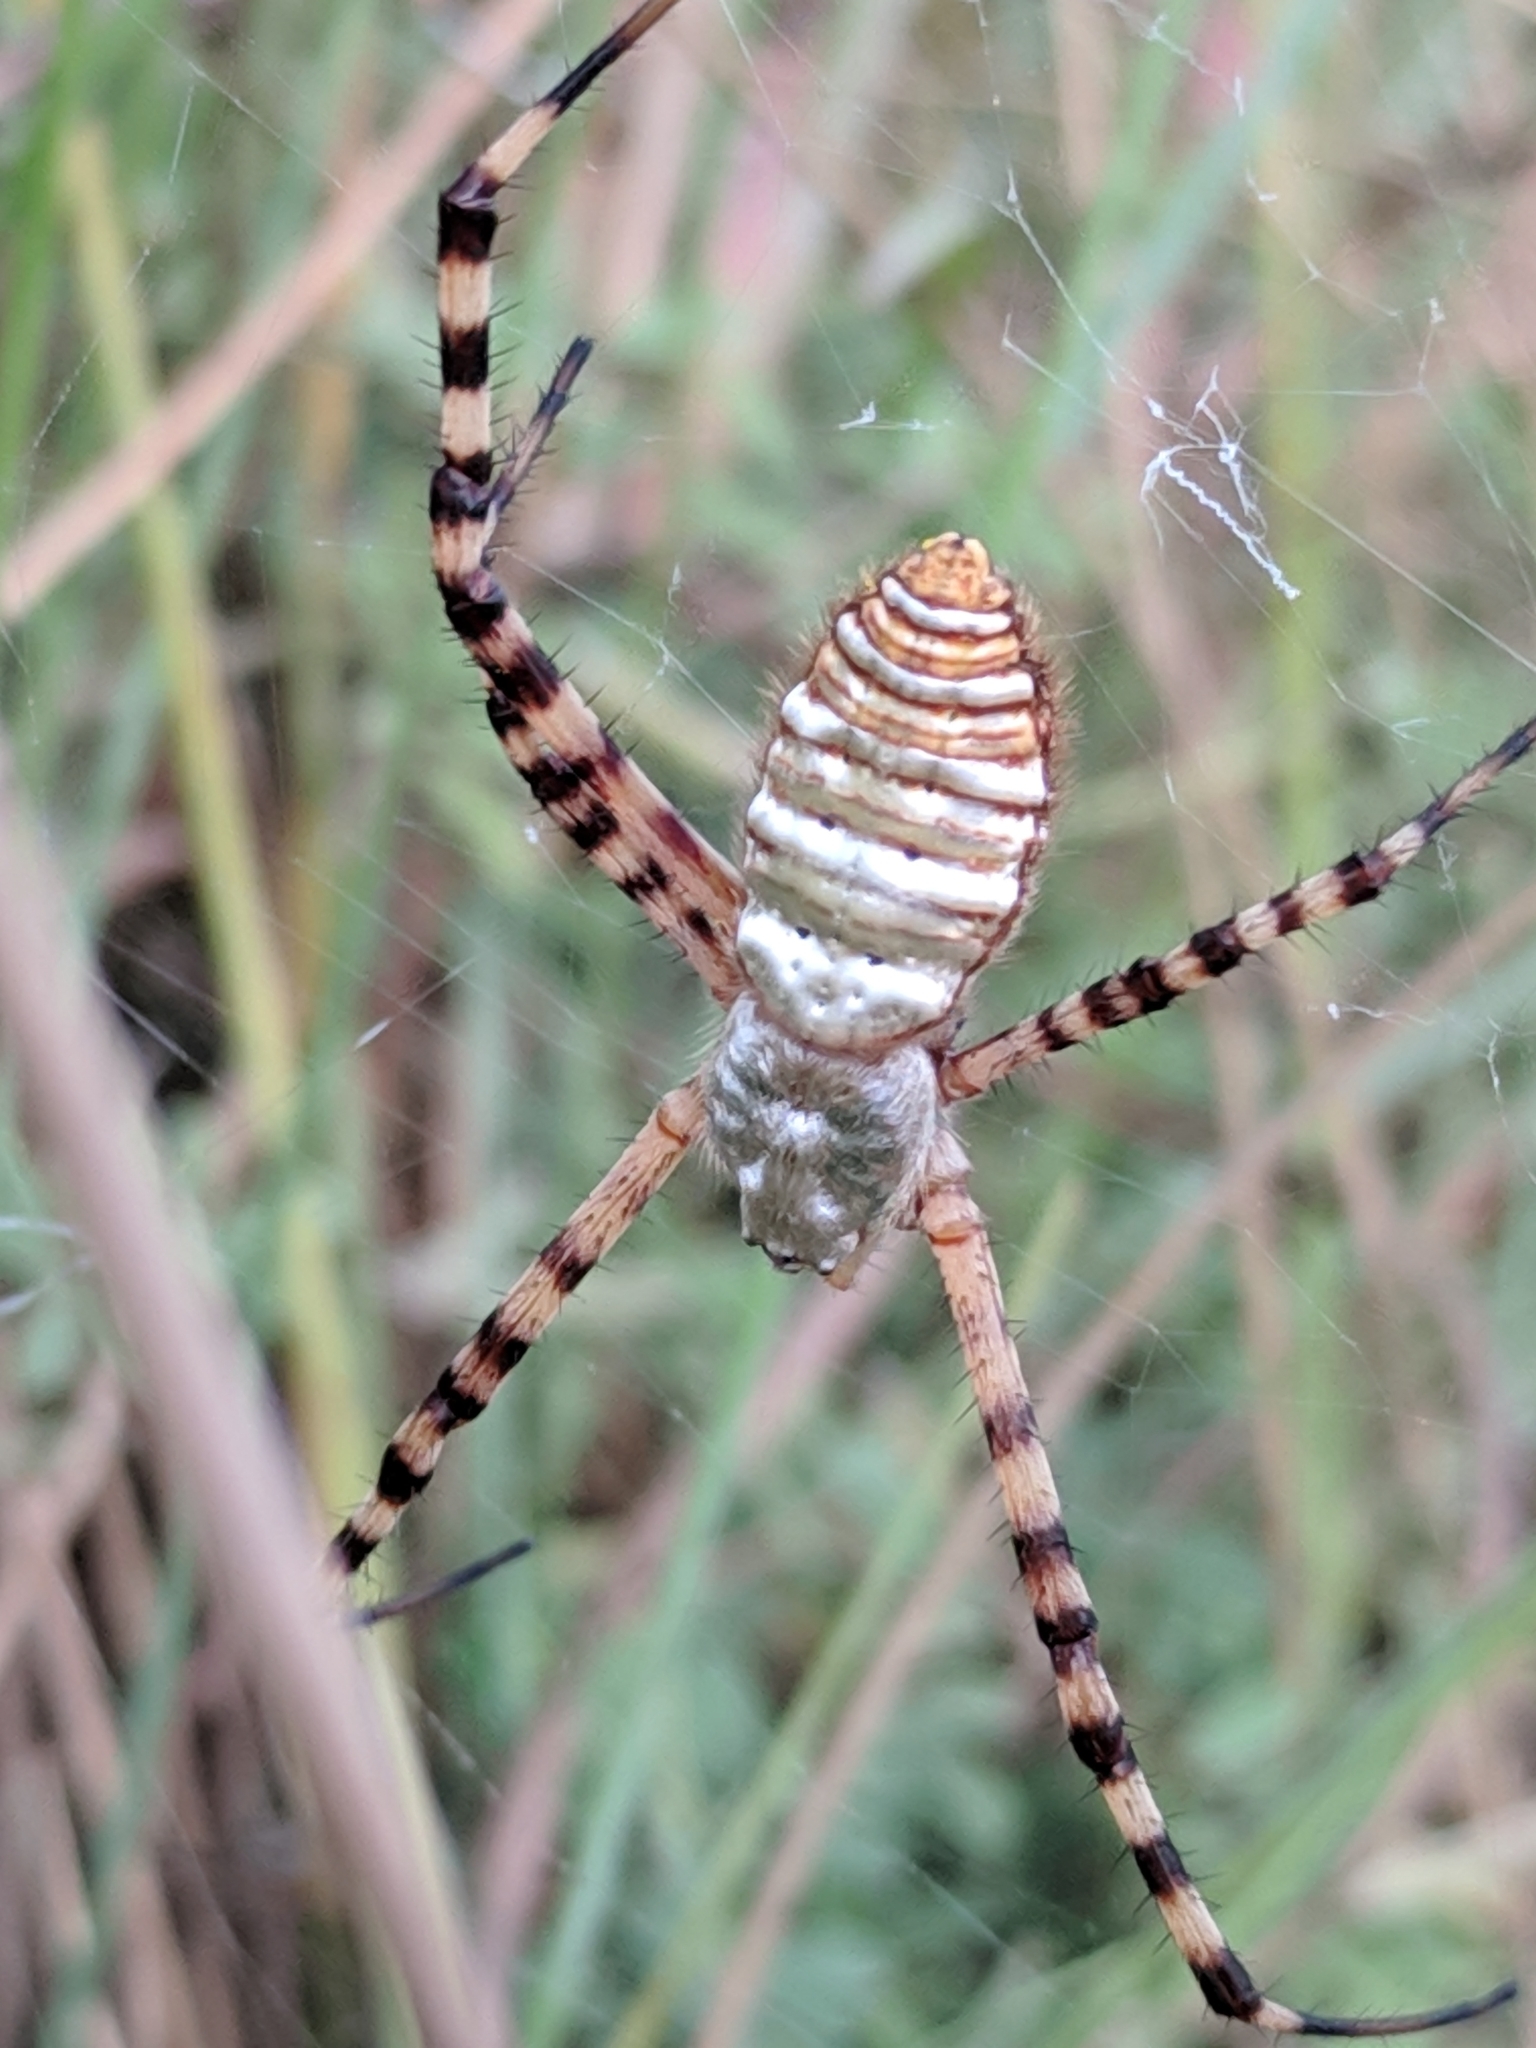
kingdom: Animalia
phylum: Arthropoda
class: Arachnida
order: Araneae
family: Araneidae
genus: Argiope
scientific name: Argiope trifasciata
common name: Banded garden spider
